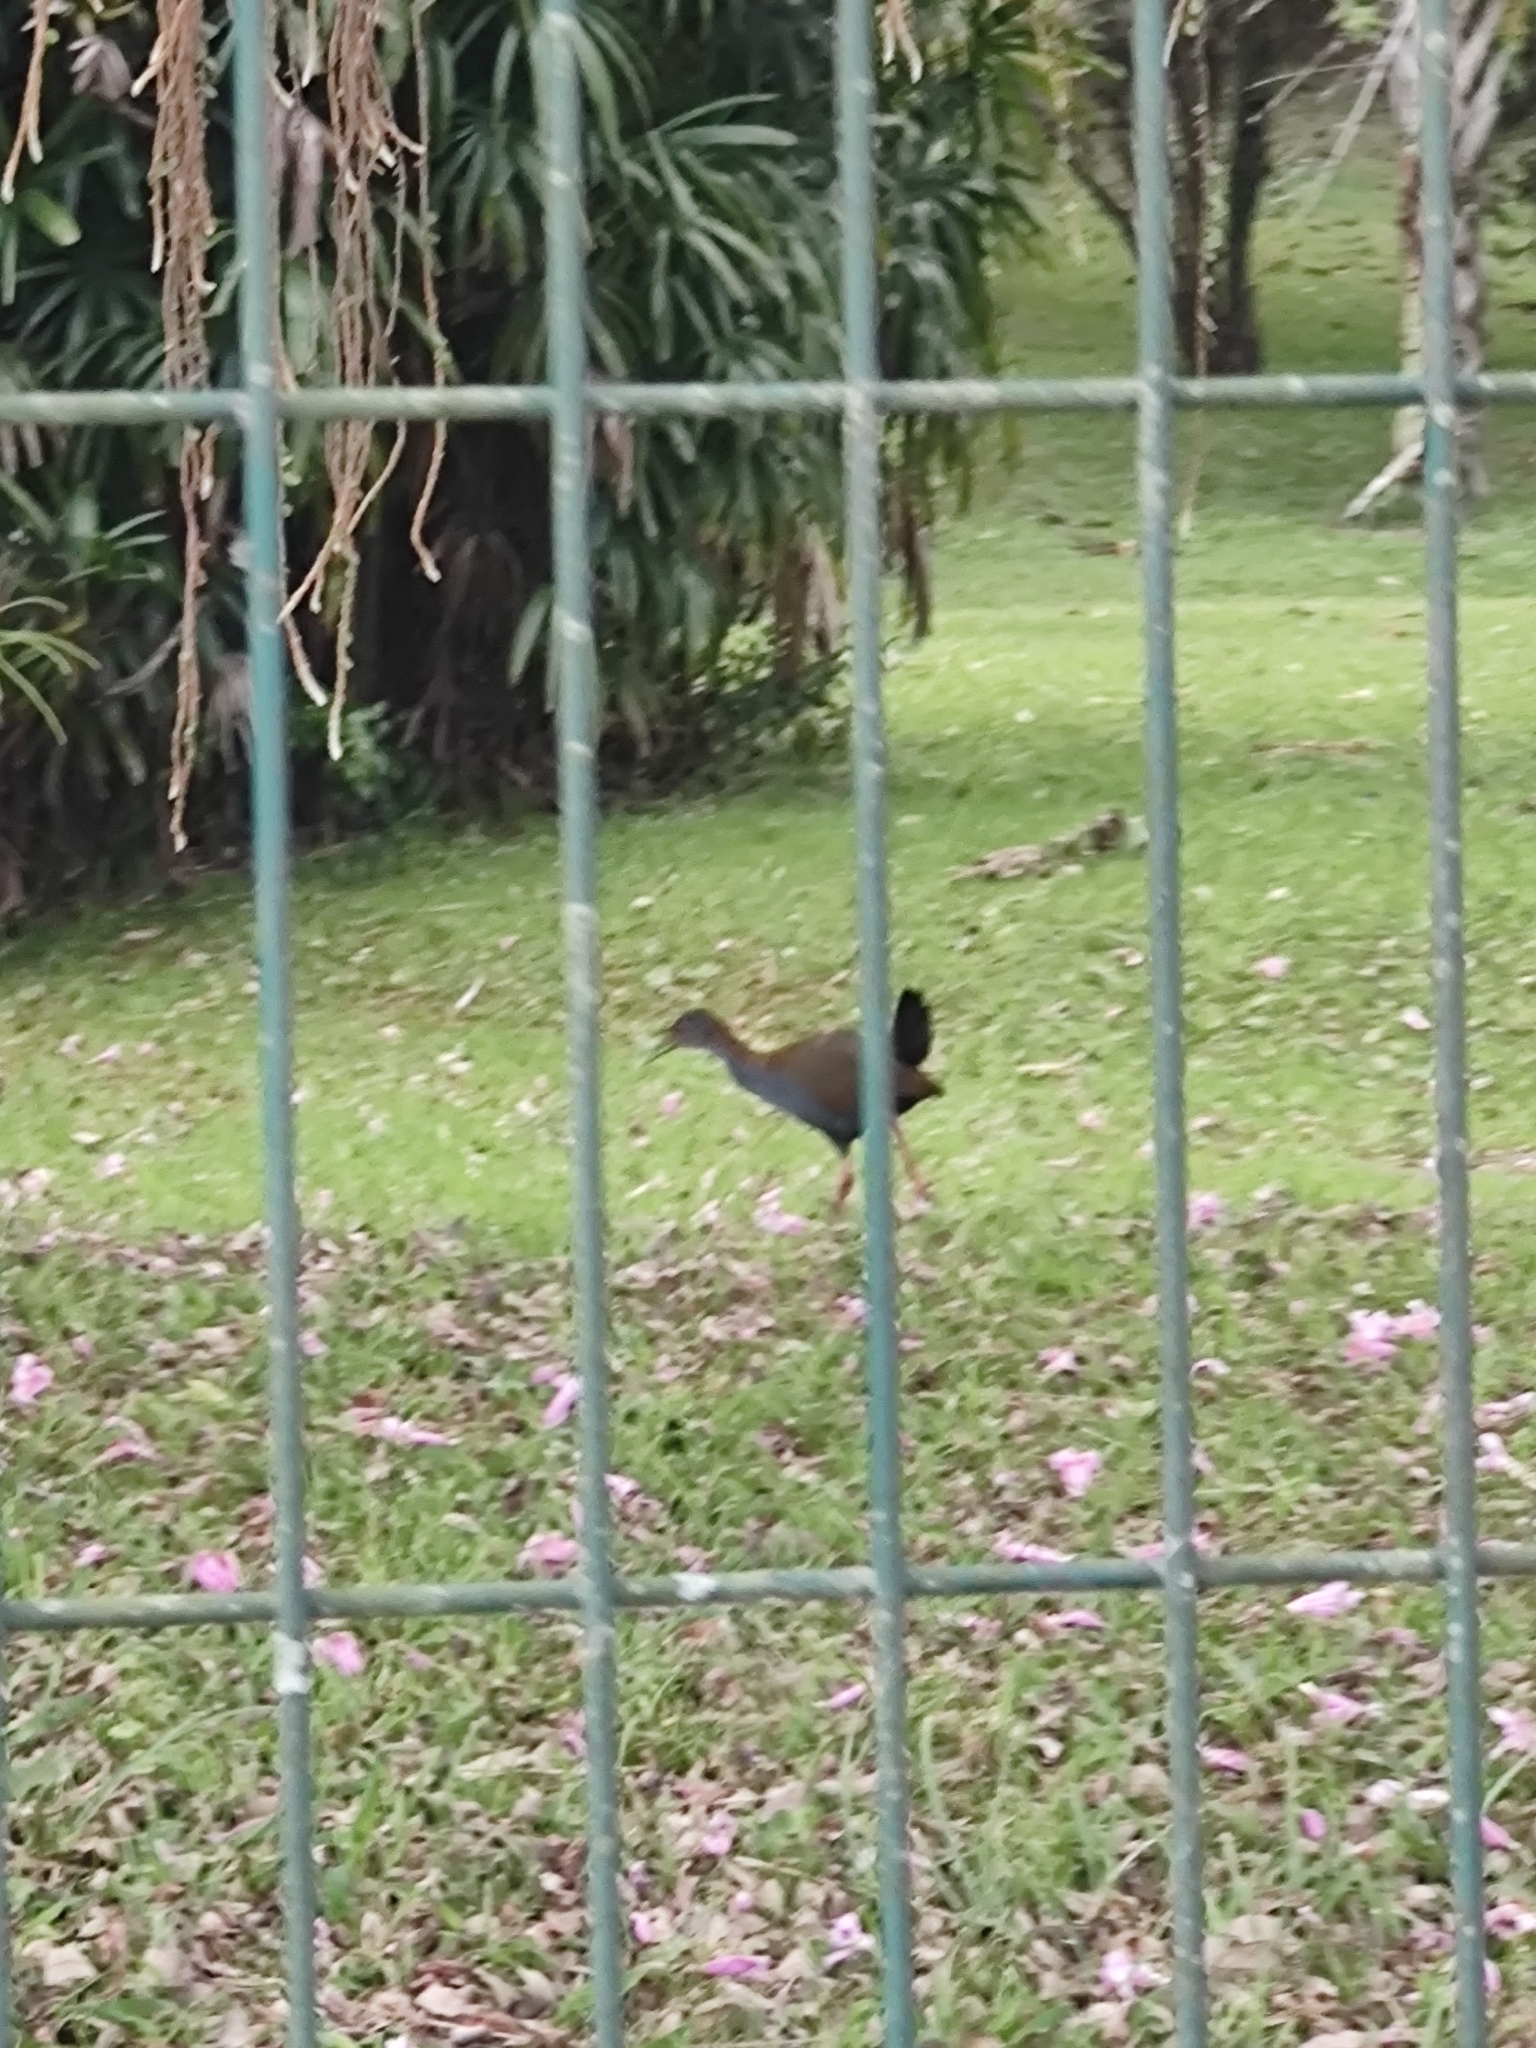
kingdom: Animalia
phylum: Chordata
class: Aves
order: Gruiformes
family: Rallidae
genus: Aramides
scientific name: Aramides saracura
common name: Slaty-breasted wood rail
